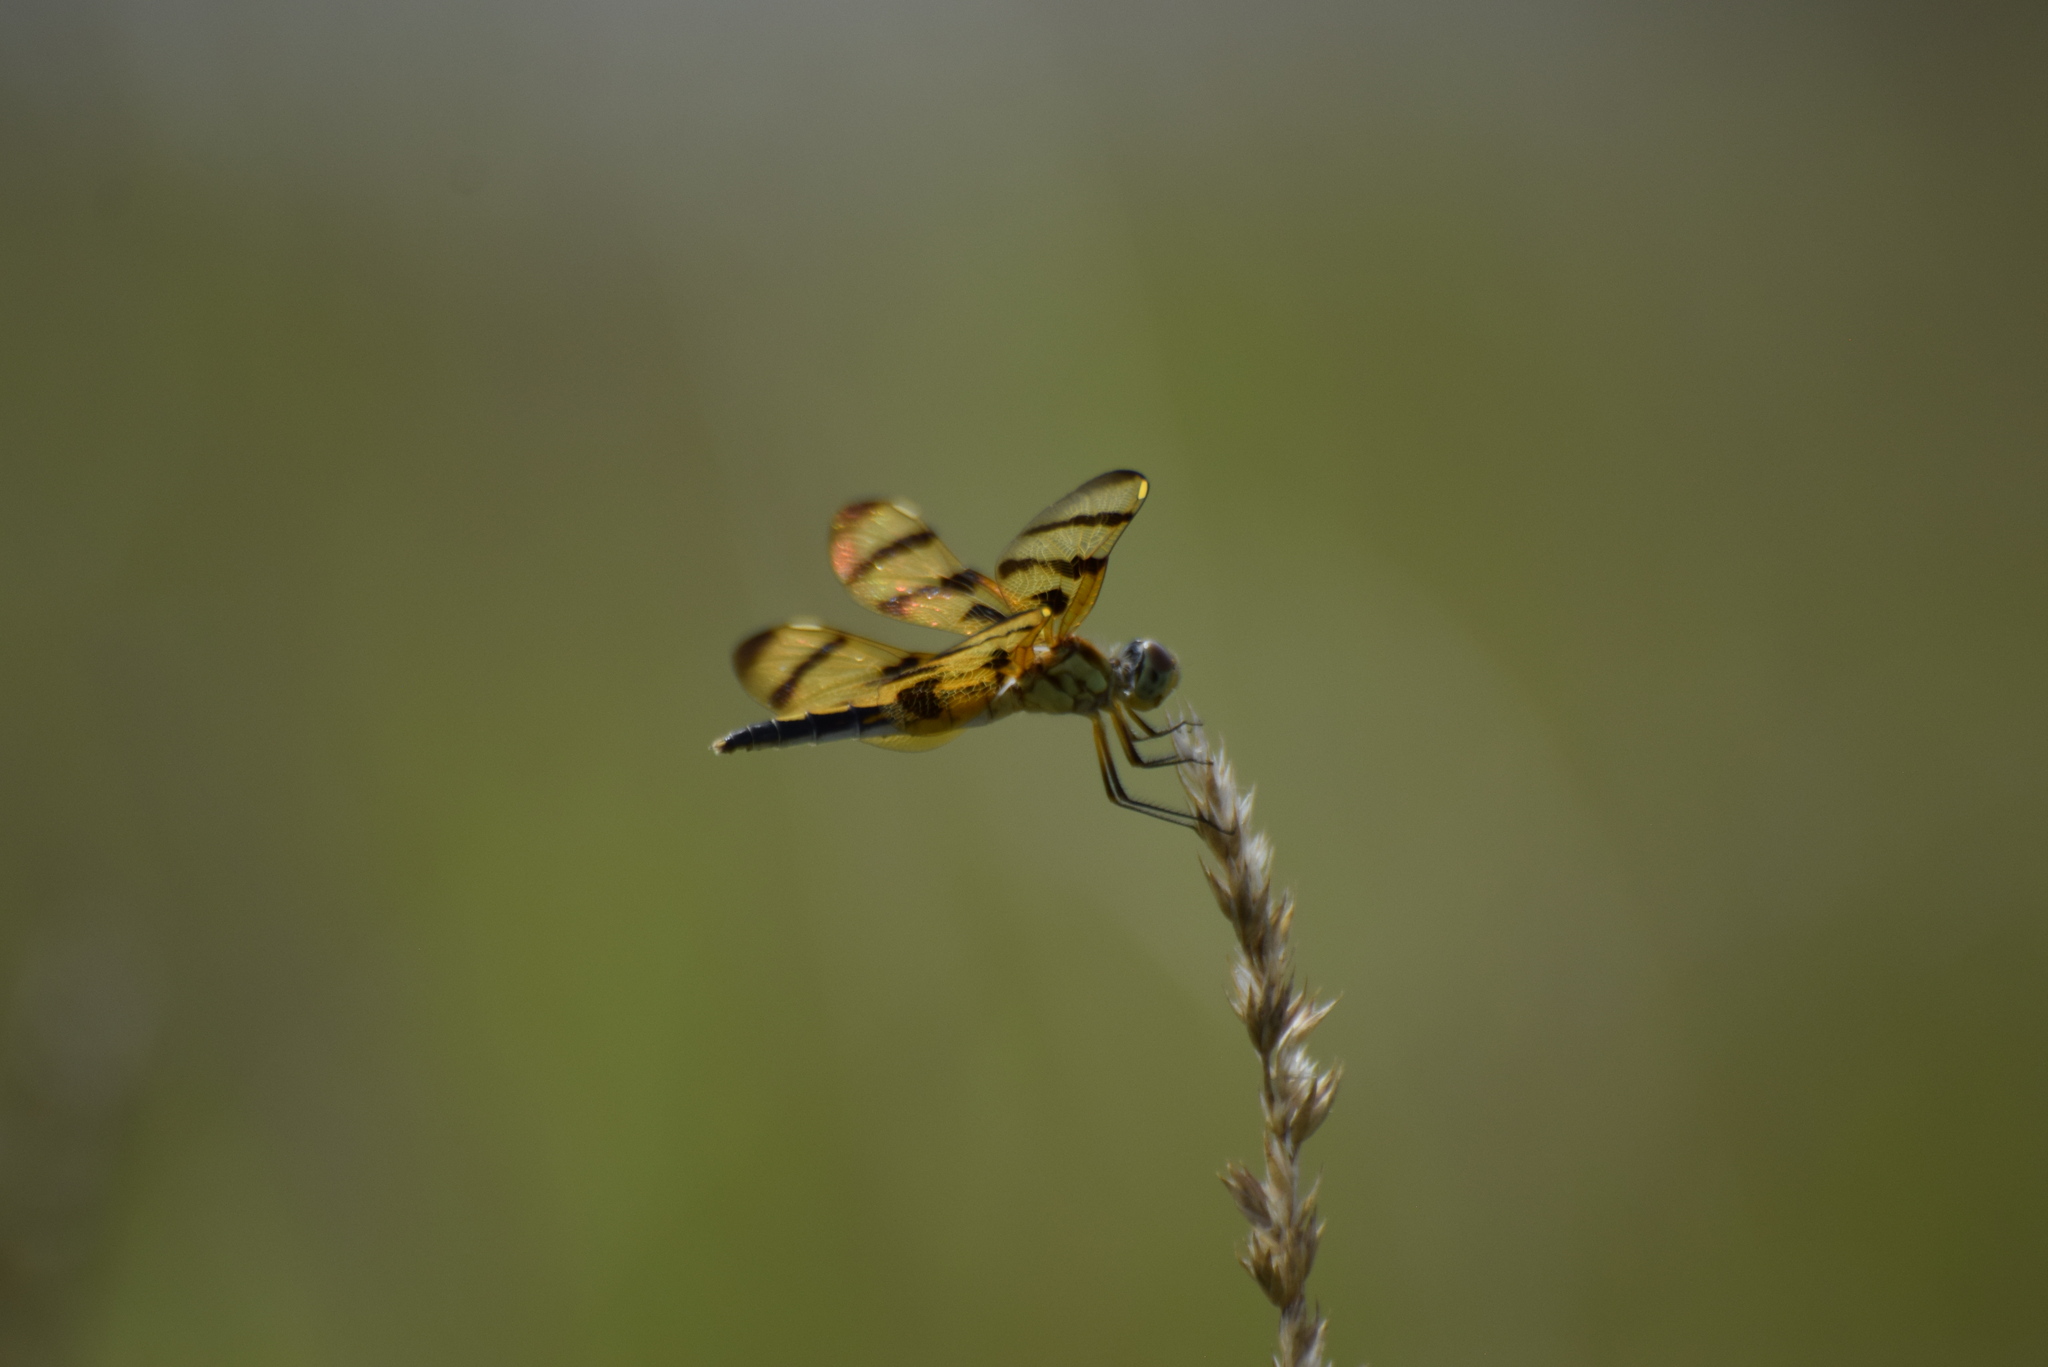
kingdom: Animalia
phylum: Arthropoda
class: Insecta
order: Odonata
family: Libellulidae
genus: Celithemis
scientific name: Celithemis eponina
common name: Halloween pennant
